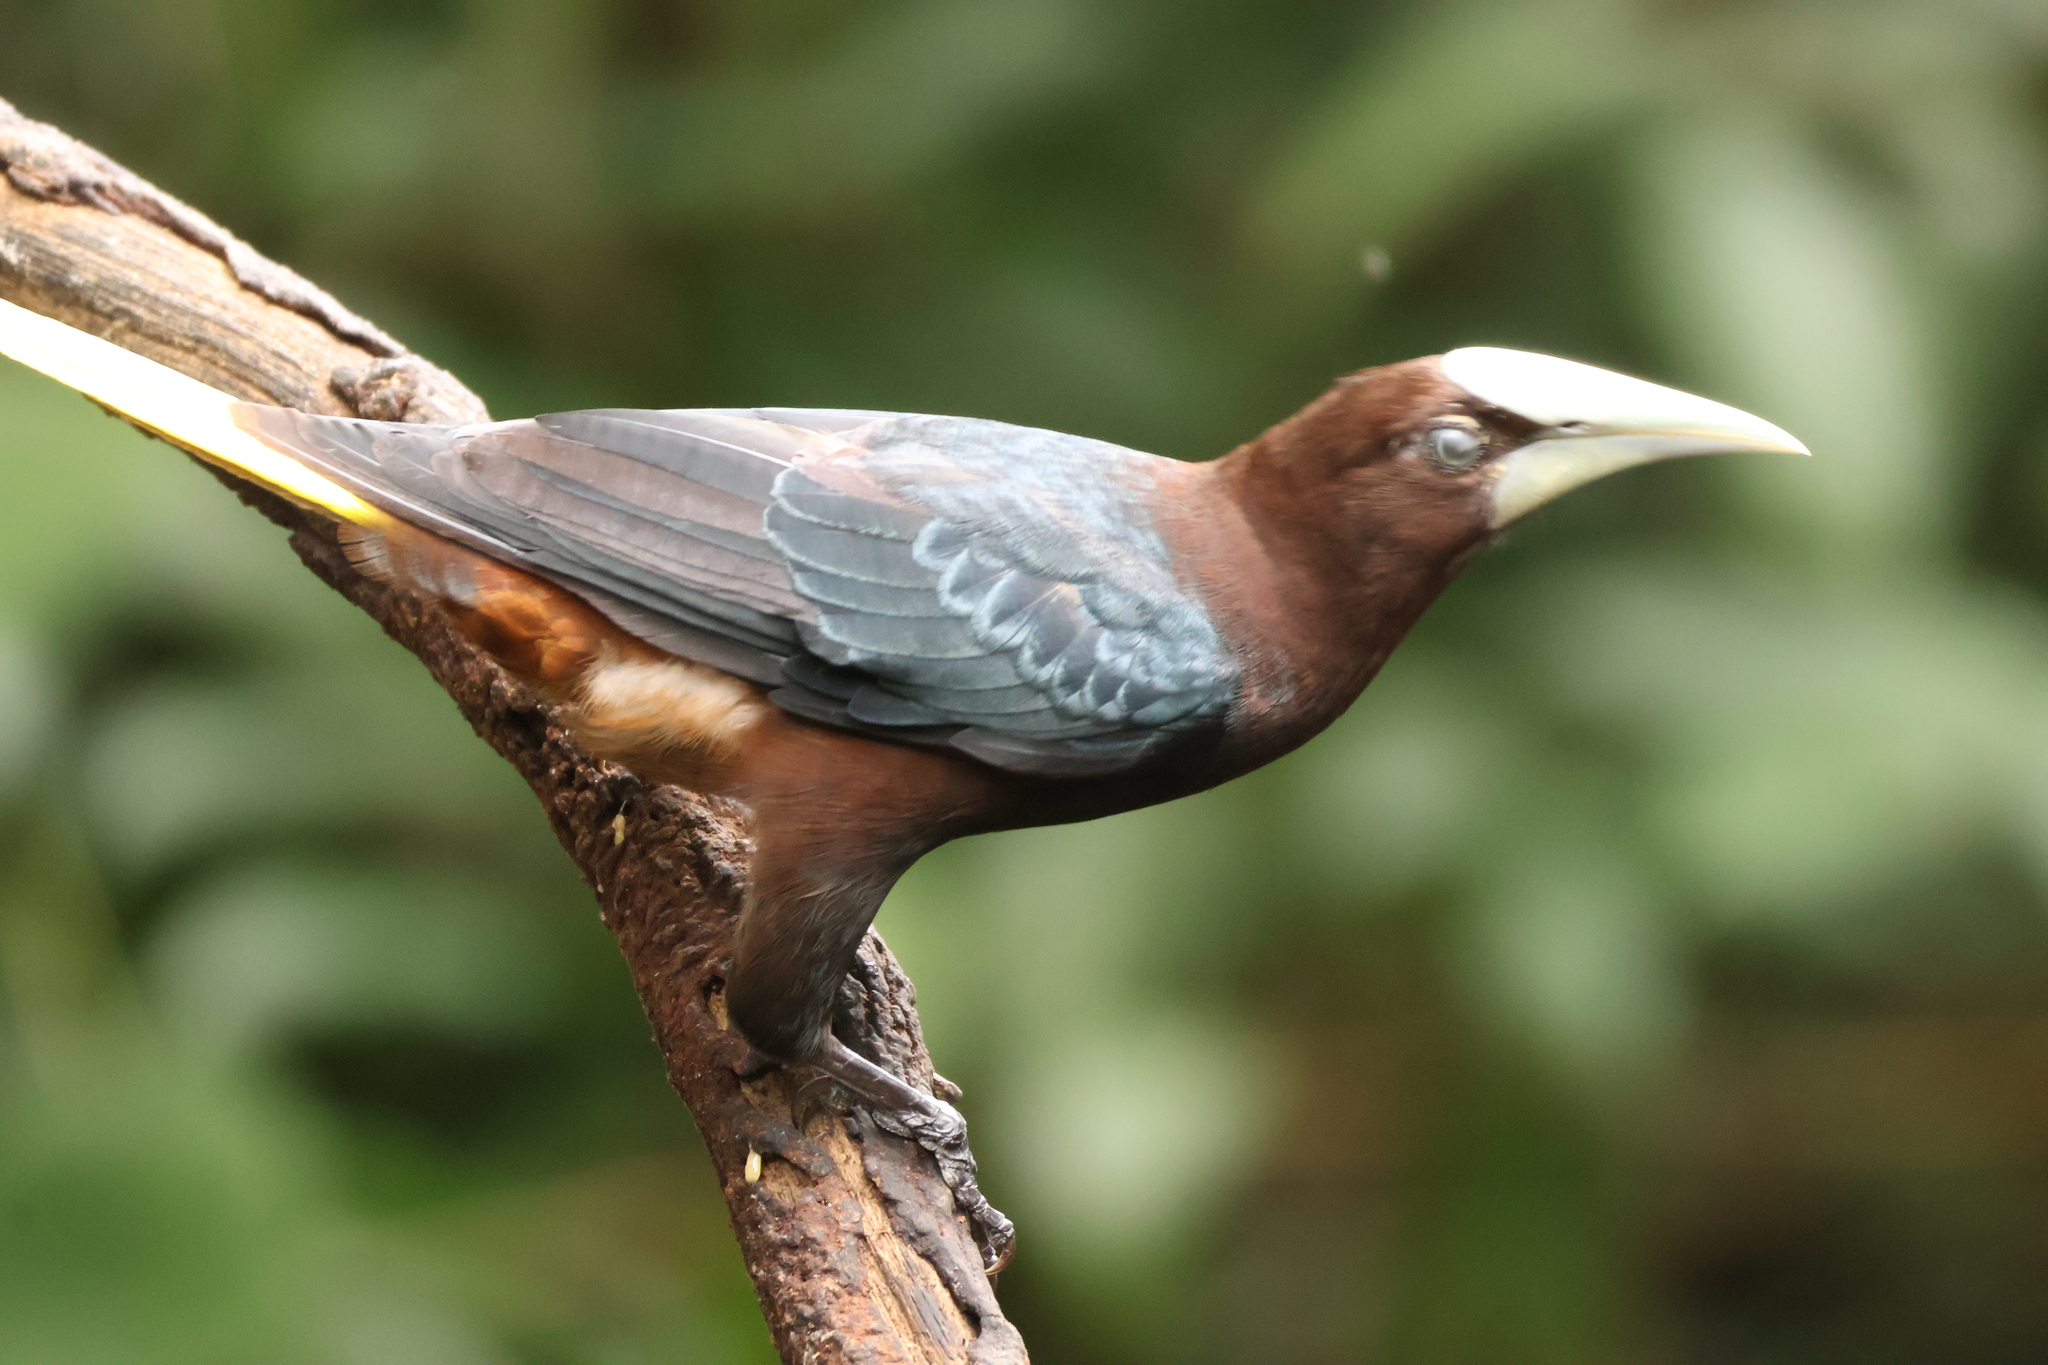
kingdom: Animalia
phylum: Chordata
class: Aves
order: Passeriformes
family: Icteridae
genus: Psarocolius
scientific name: Psarocolius wagleri
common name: Chestnut-headed oropendola
